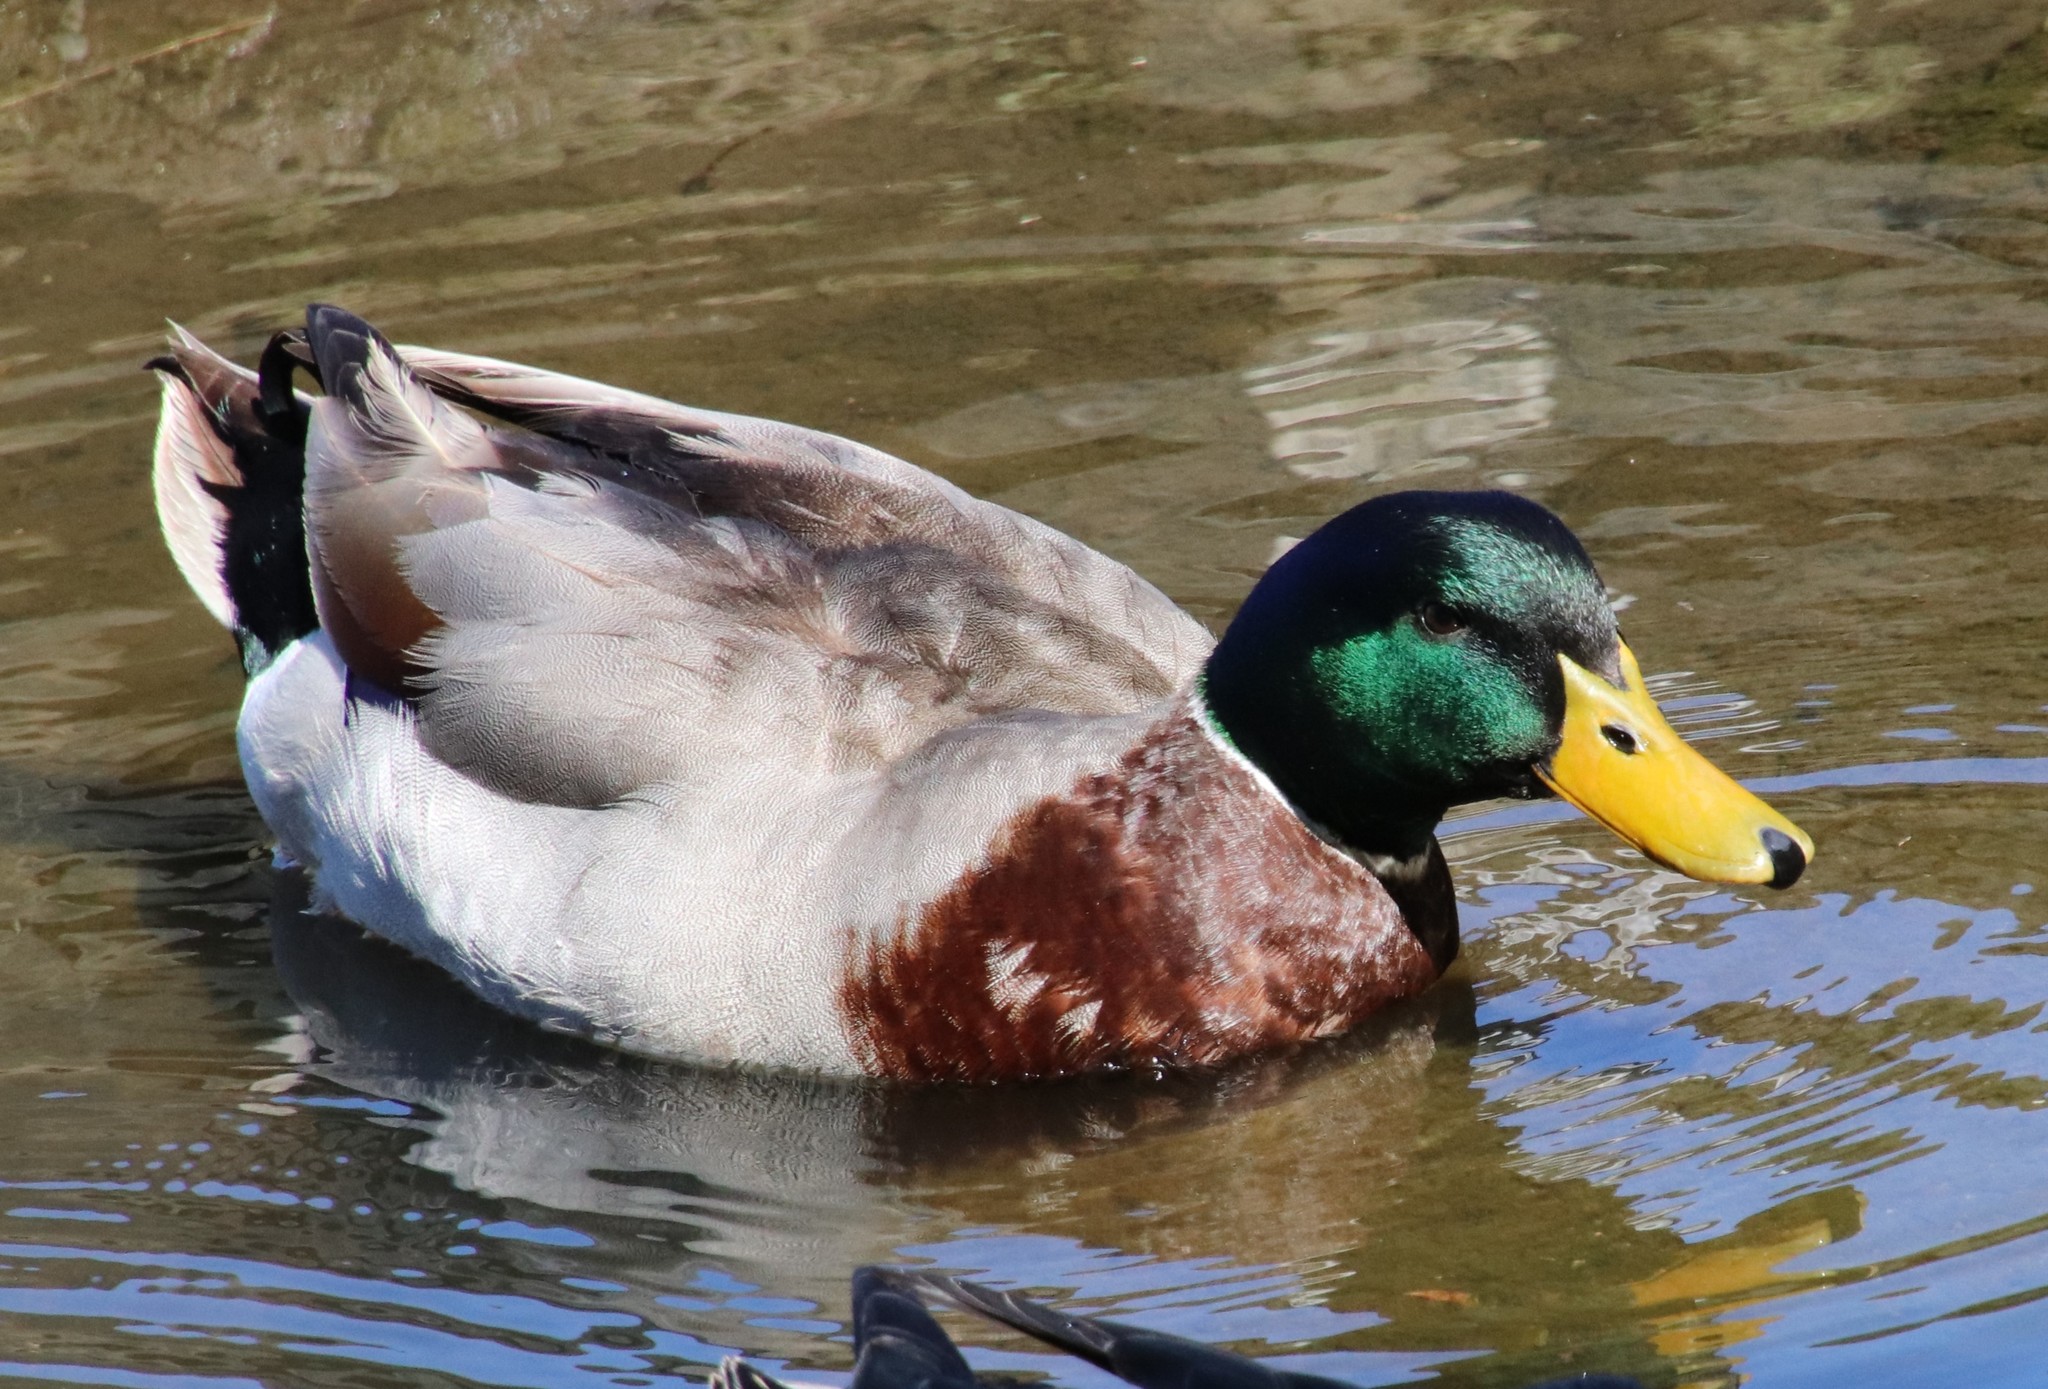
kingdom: Animalia
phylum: Chordata
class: Aves
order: Anseriformes
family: Anatidae
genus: Anas
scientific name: Anas platyrhynchos
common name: Mallard
